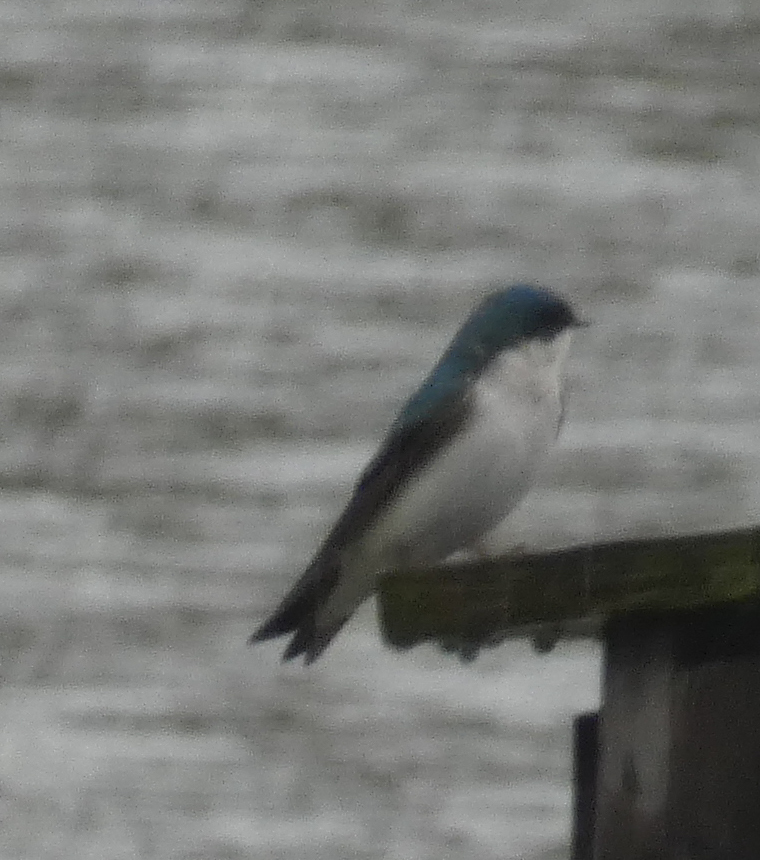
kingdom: Animalia
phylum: Chordata
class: Aves
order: Passeriformes
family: Hirundinidae
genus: Tachycineta
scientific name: Tachycineta bicolor
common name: Tree swallow
